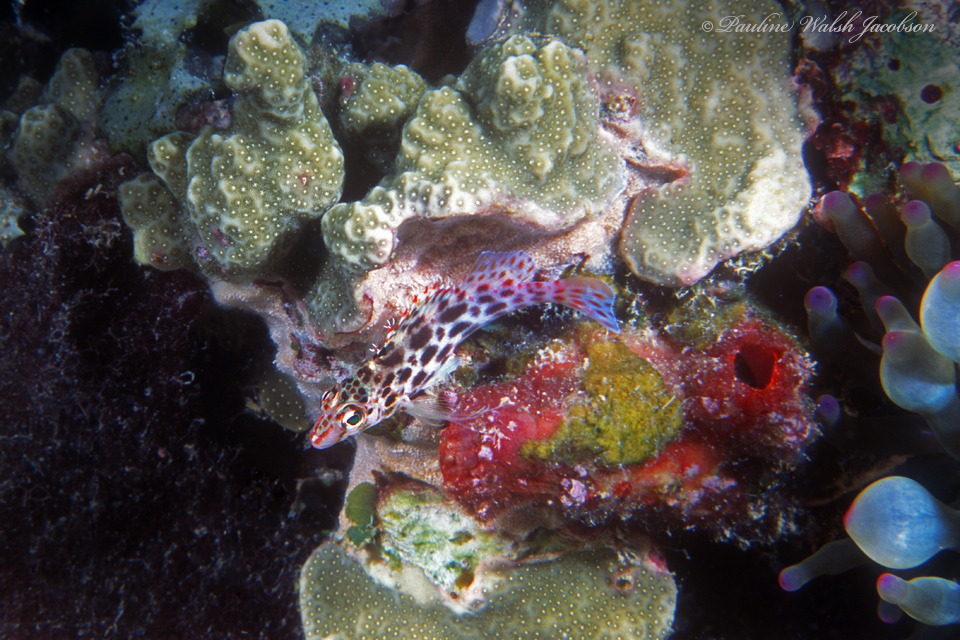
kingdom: Animalia
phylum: Chordata
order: Perciformes
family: Cirrhitidae
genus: Cirrhitichthys
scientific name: Cirrhitichthys oxycephalus
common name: Spotted hawkfish
